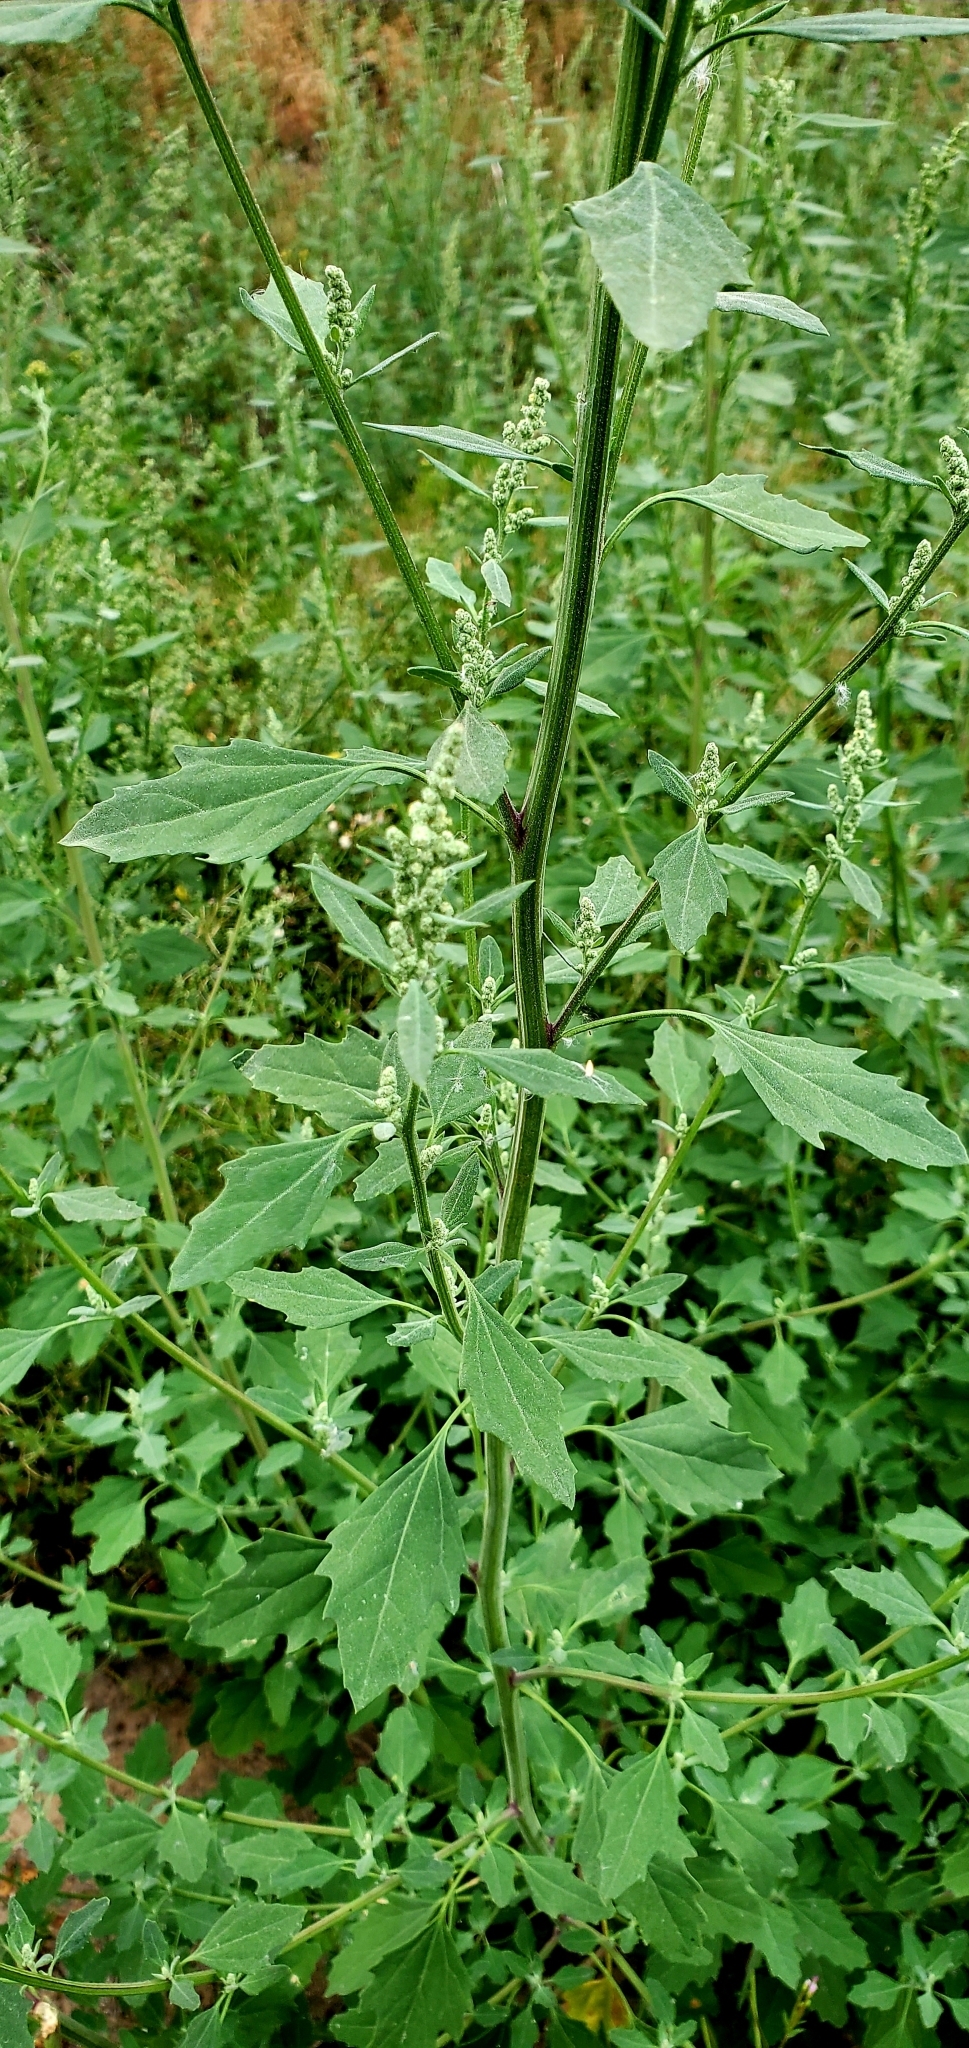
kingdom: Plantae
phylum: Tracheophyta
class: Magnoliopsida
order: Caryophyllales
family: Amaranthaceae
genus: Chenopodium
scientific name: Chenopodium album
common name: Fat-hen
